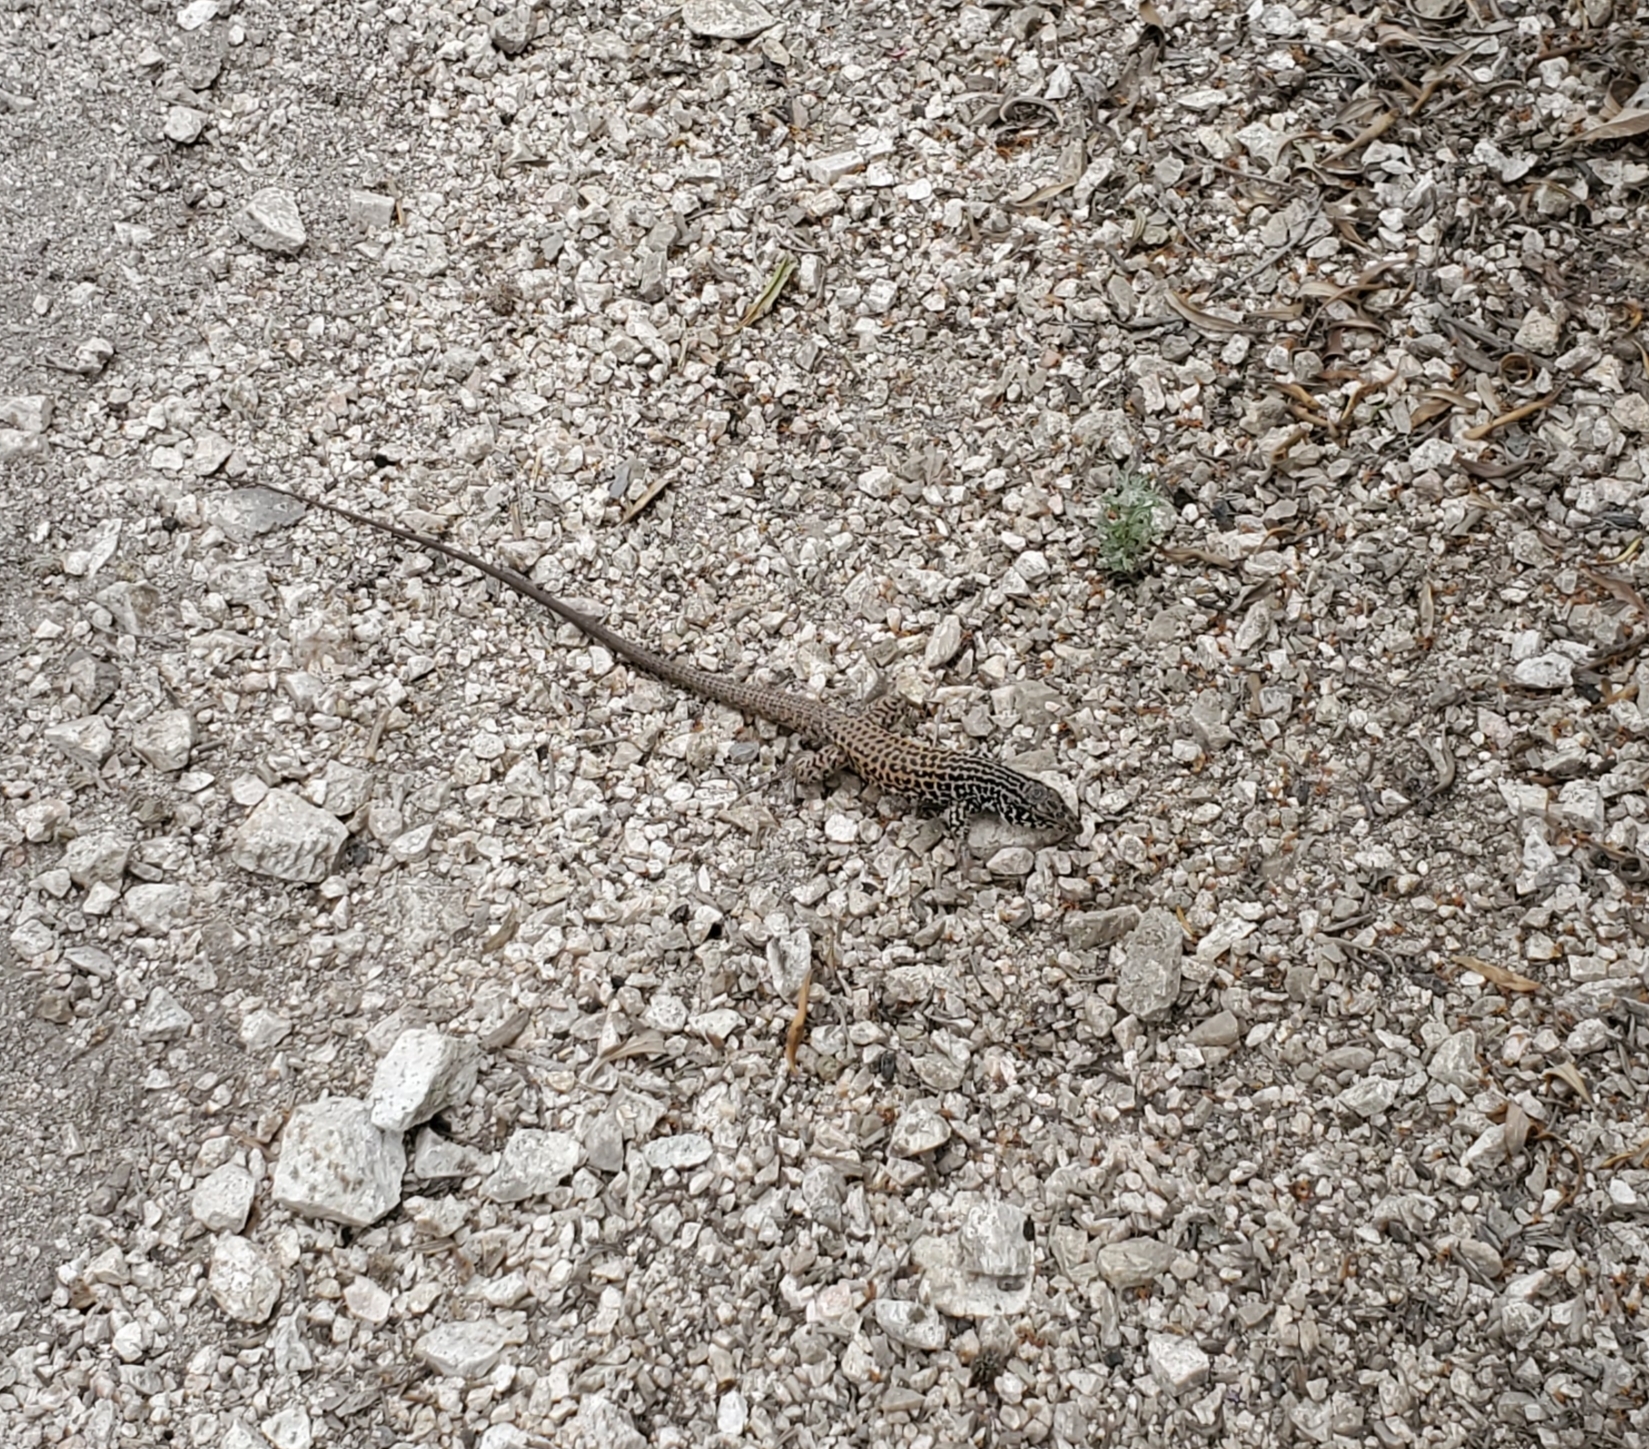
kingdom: Animalia
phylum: Chordata
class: Squamata
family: Teiidae
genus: Aspidoscelis
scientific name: Aspidoscelis tigris
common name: Tiger whiptail
